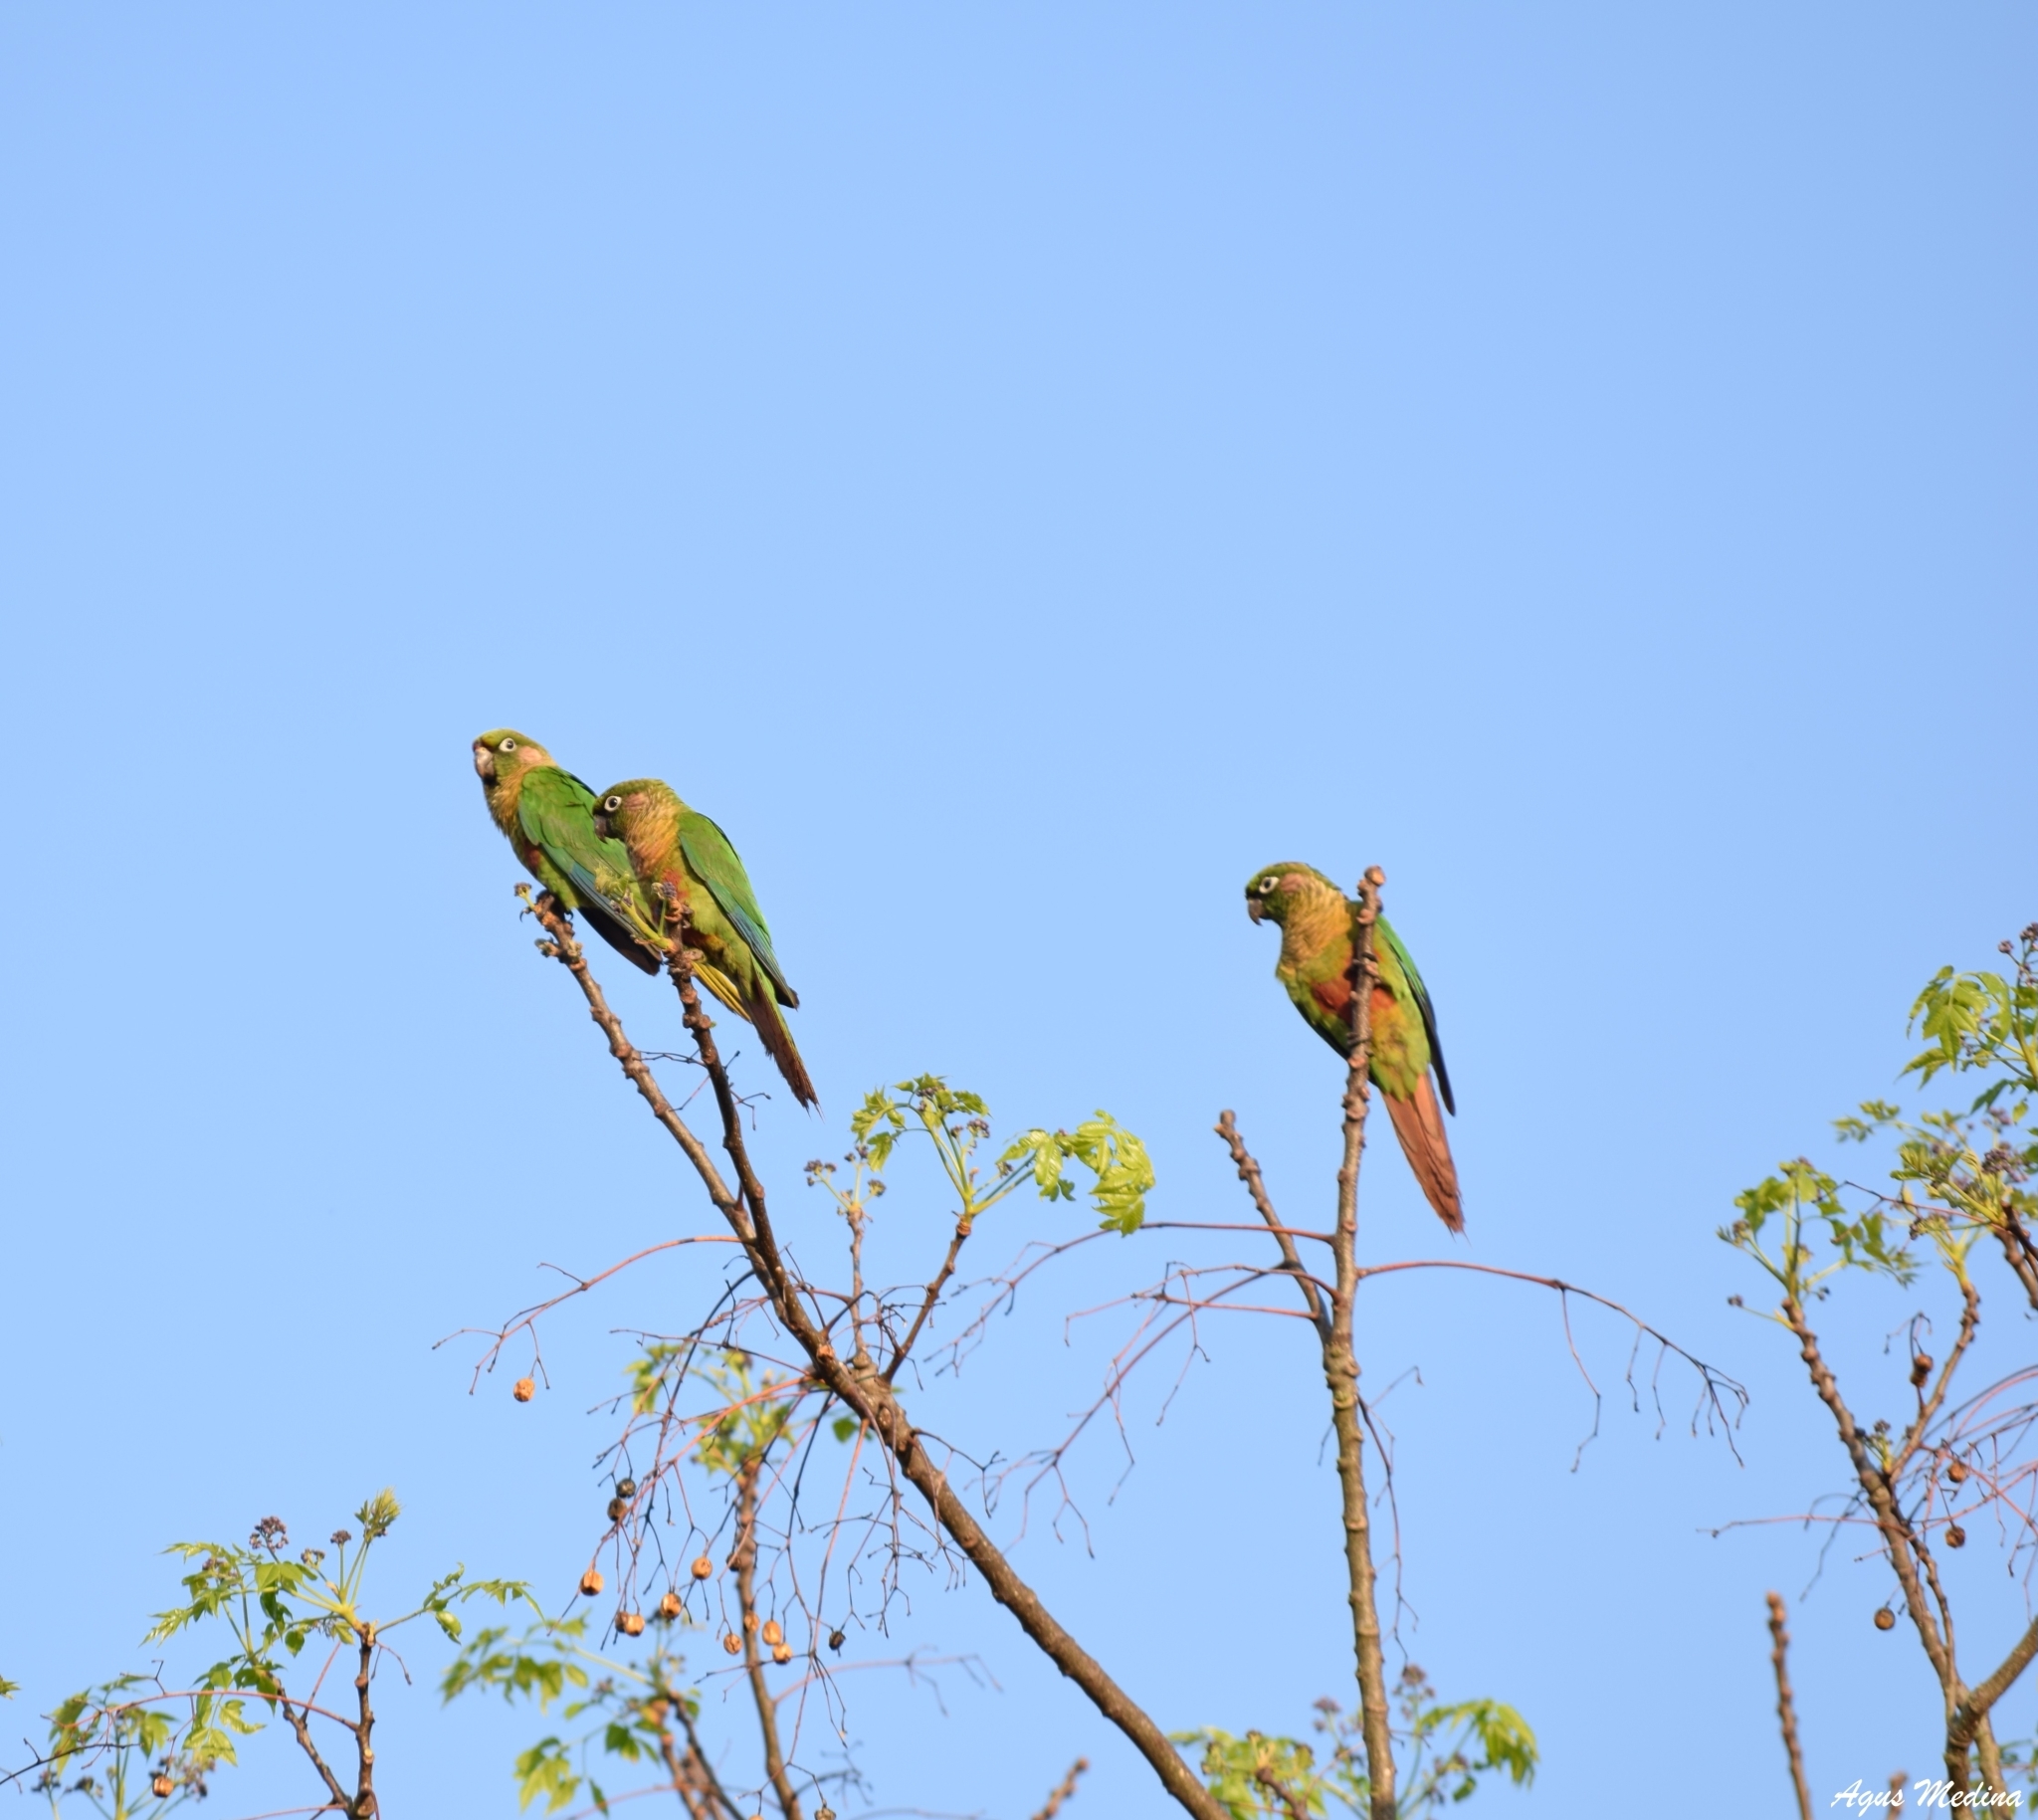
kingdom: Animalia
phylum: Chordata
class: Aves
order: Psittaciformes
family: Psittacidae
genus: Pyrrhura
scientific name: Pyrrhura frontalis
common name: Maroon-bellied parakeet
